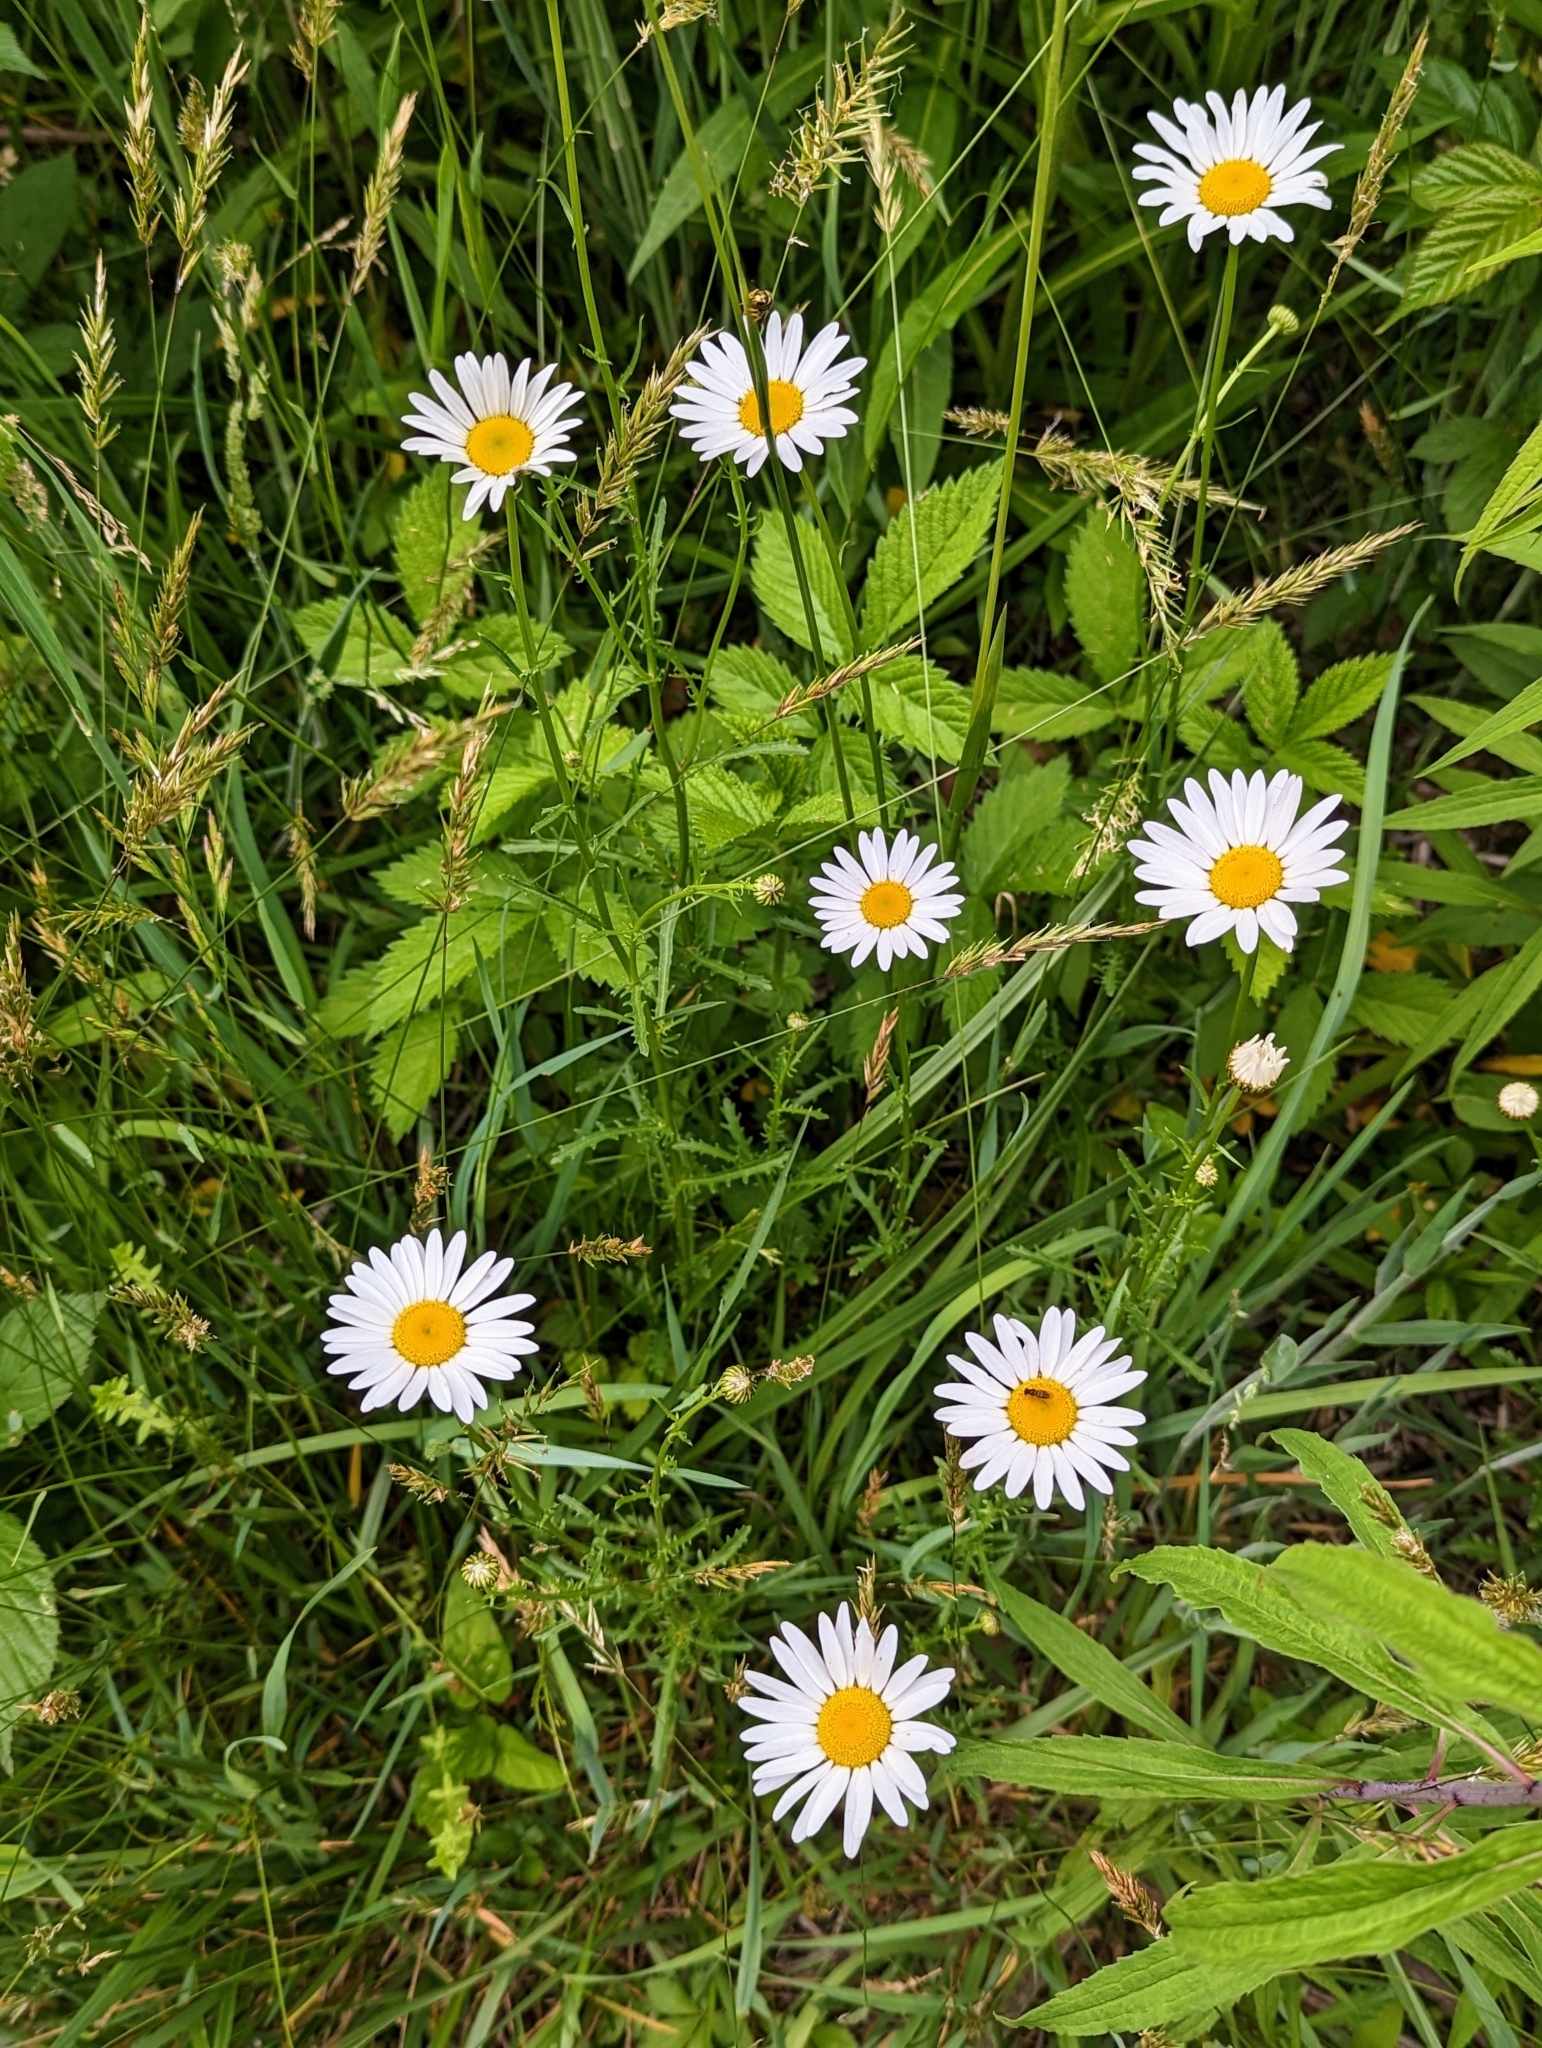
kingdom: Plantae
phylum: Tracheophyta
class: Magnoliopsida
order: Asterales
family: Asteraceae
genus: Leucanthemum
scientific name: Leucanthemum vulgare
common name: Oxeye daisy
